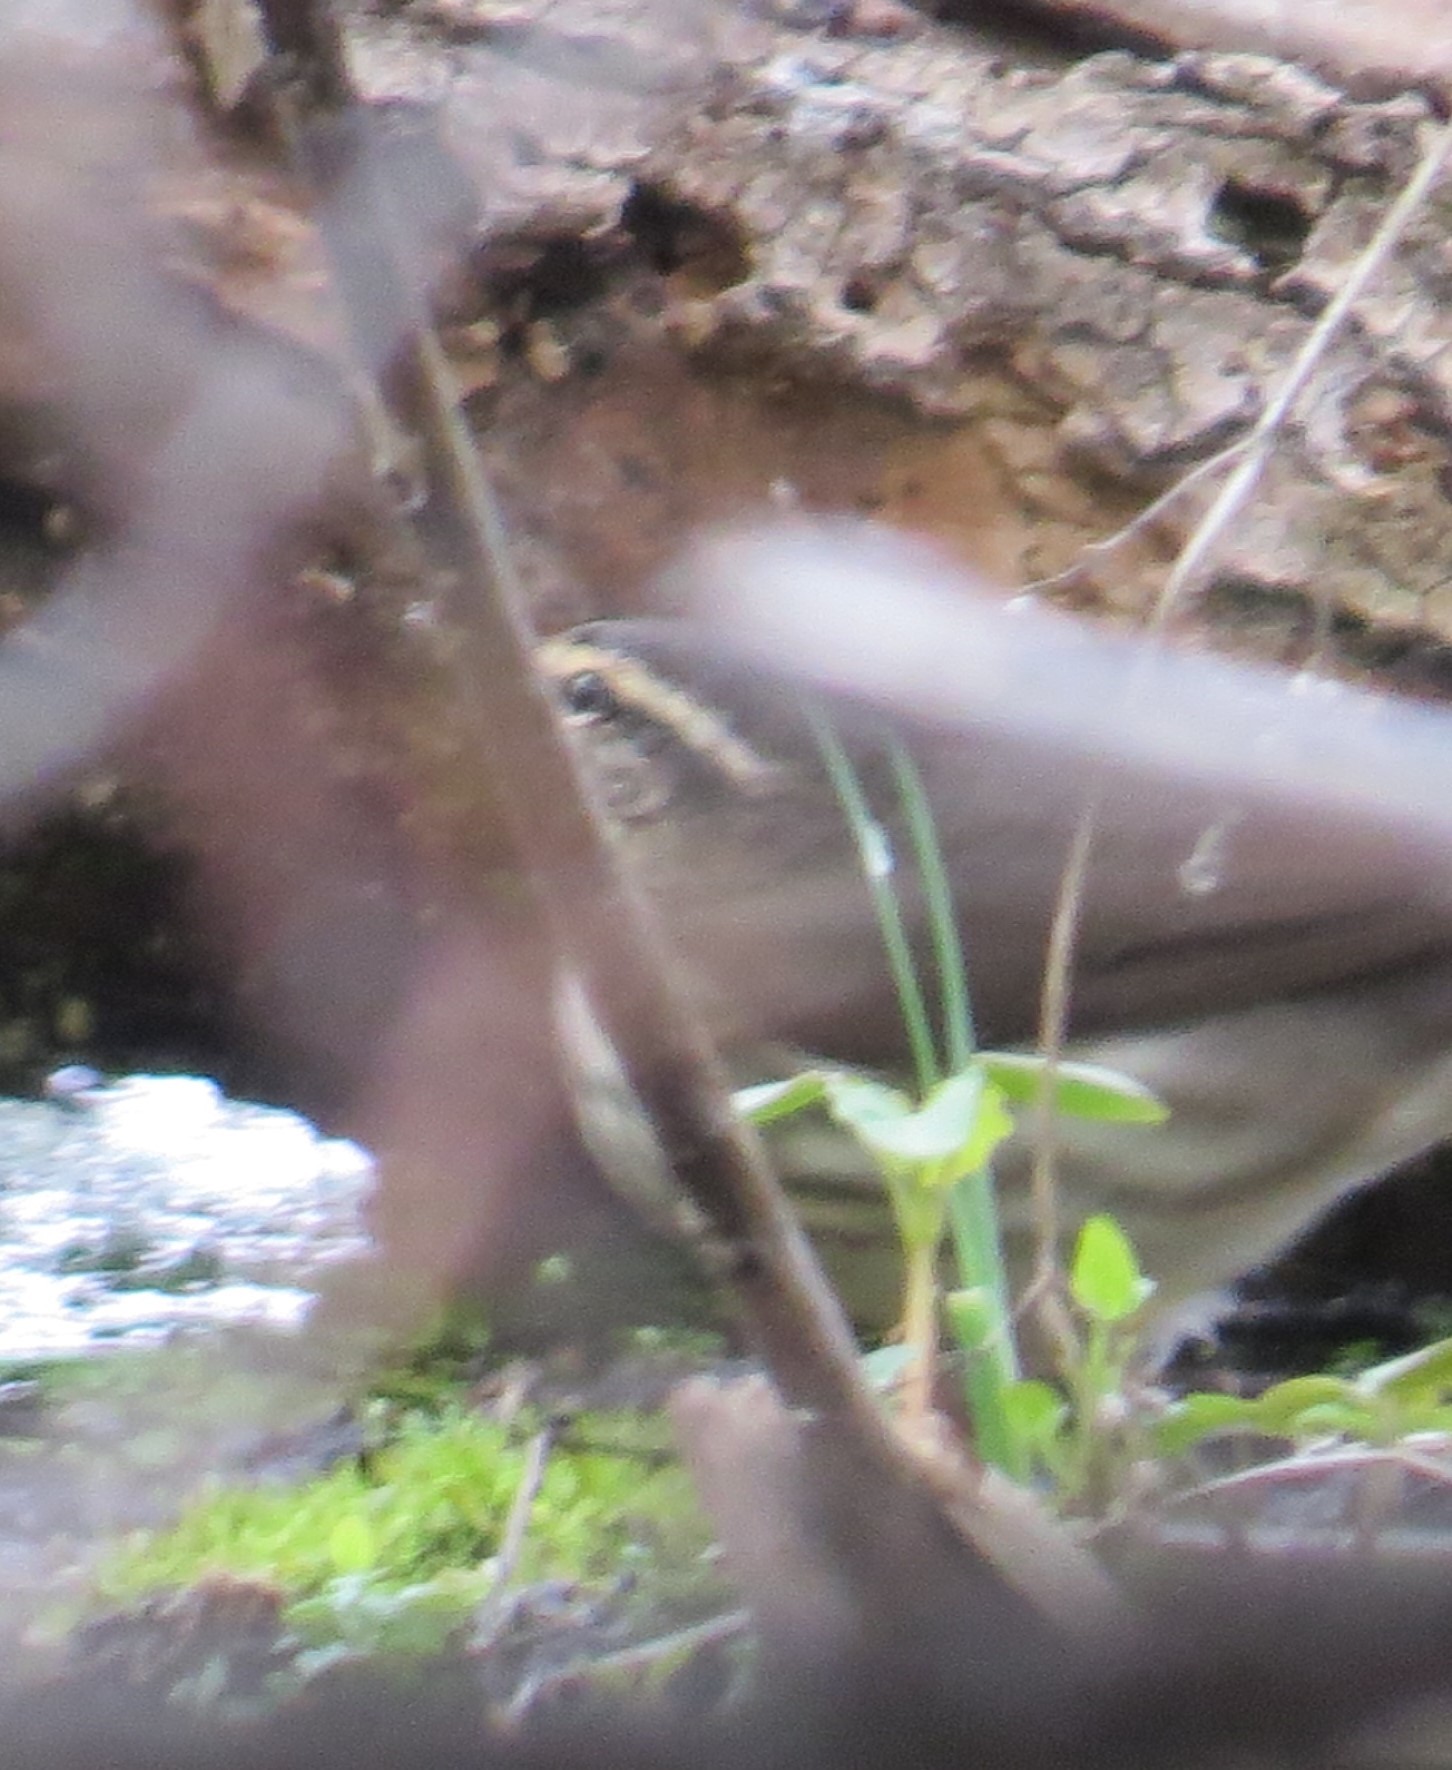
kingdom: Animalia
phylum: Chordata
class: Aves
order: Passeriformes
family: Parulidae
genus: Parkesia
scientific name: Parkesia noveboracensis
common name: Northern waterthrush
